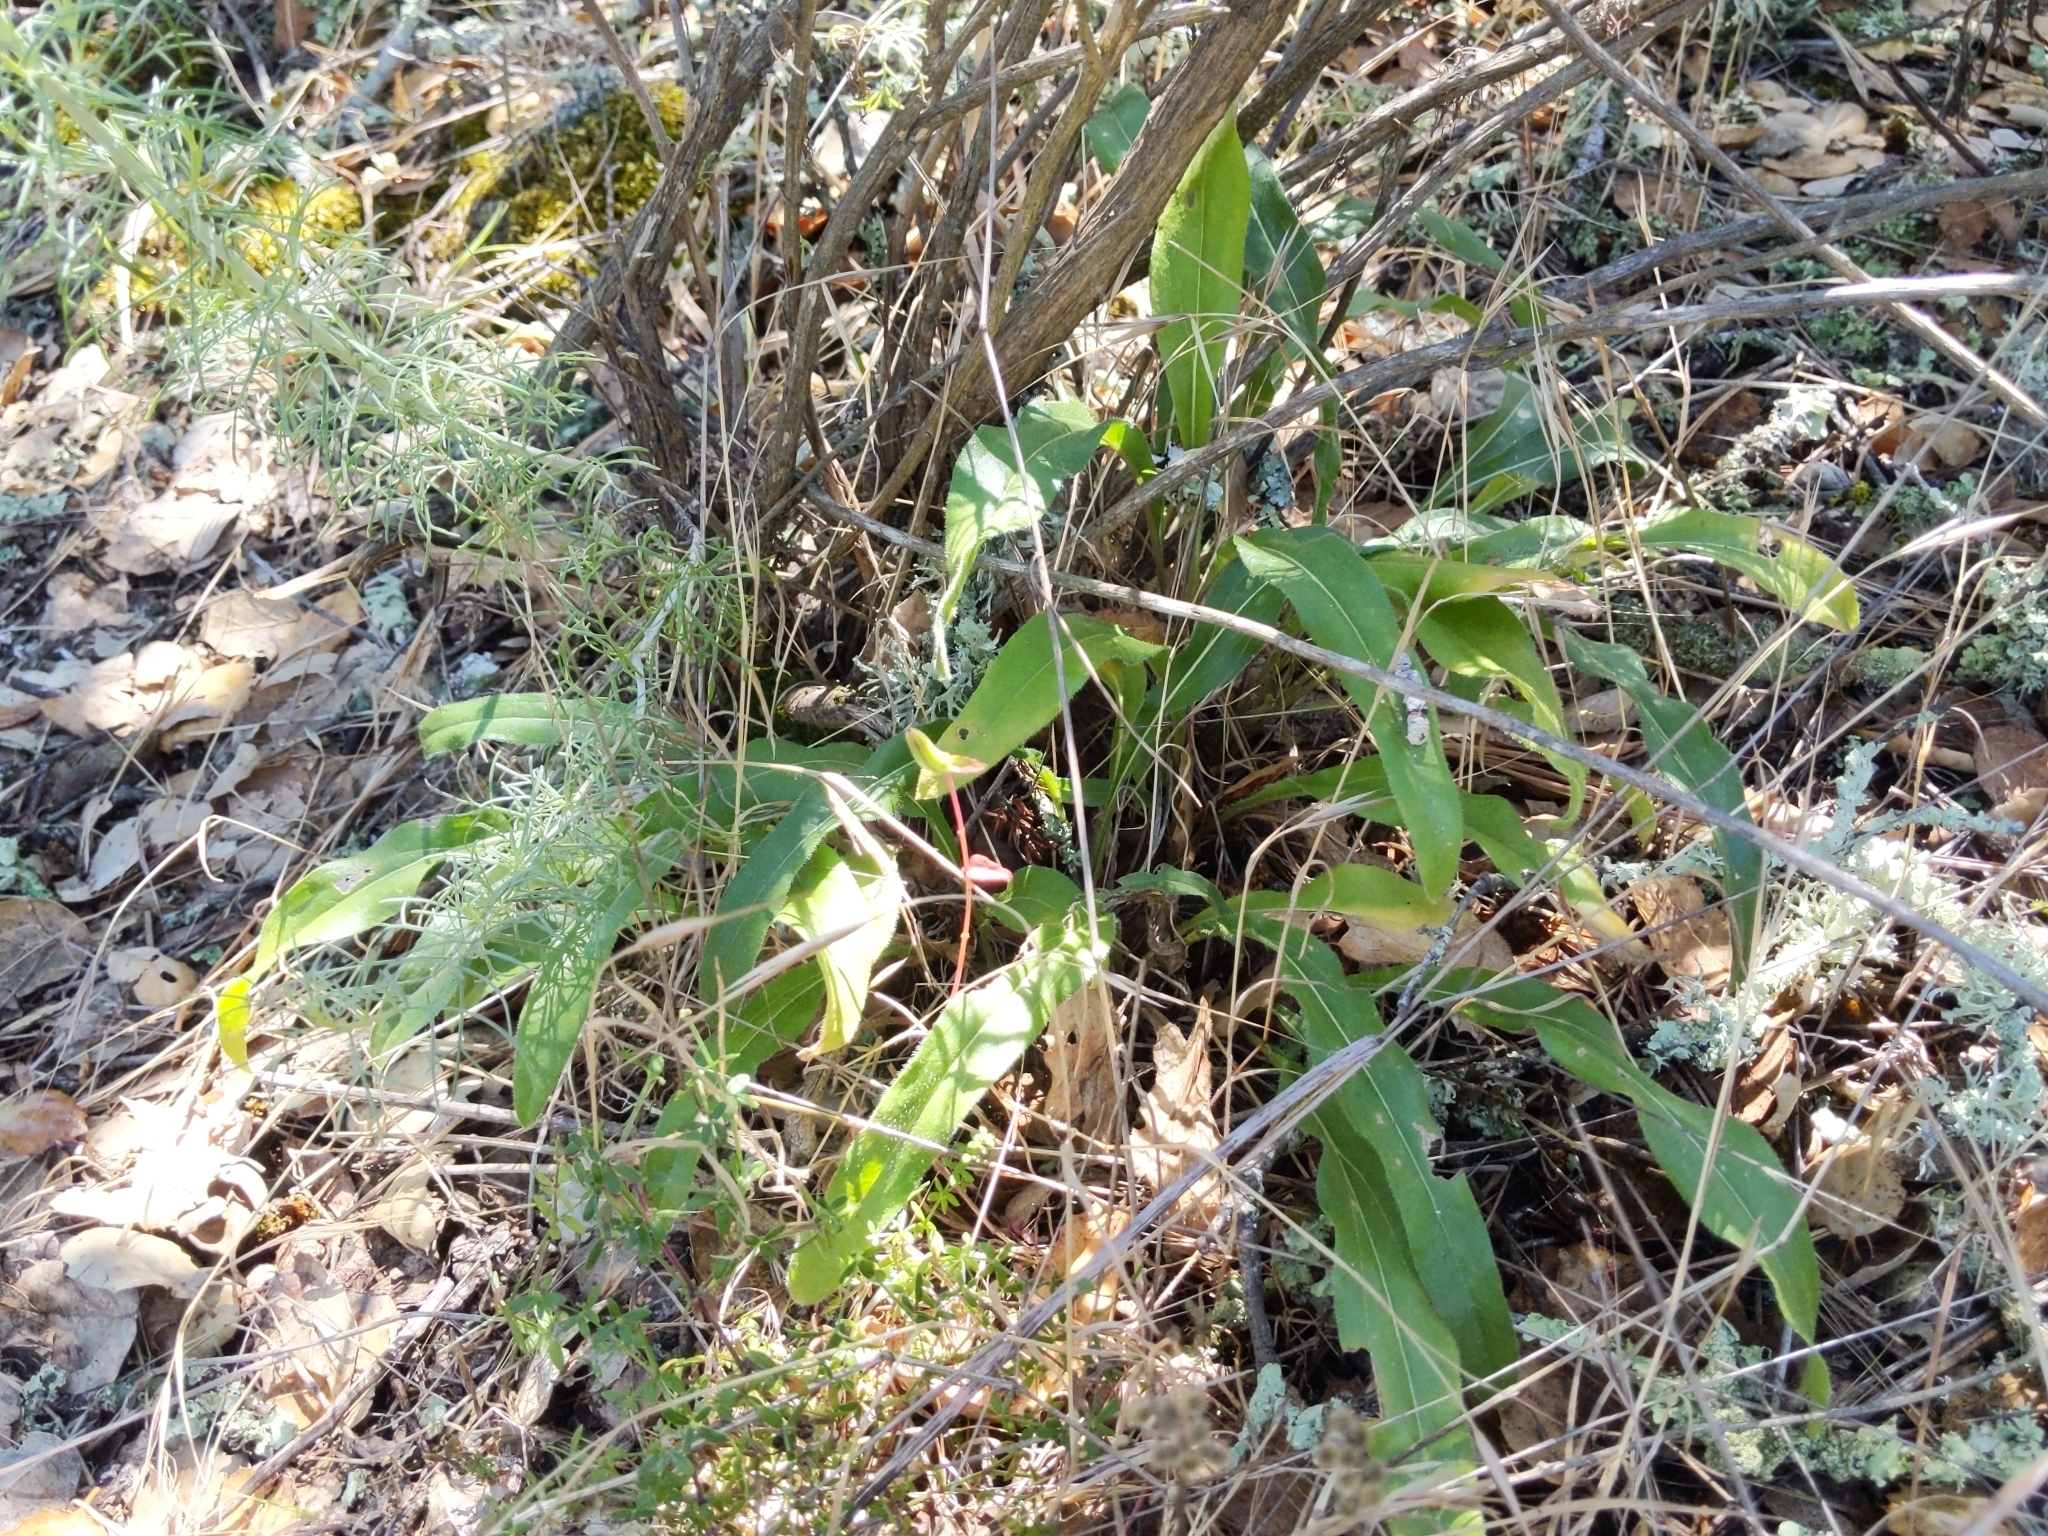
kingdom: Plantae
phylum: Tracheophyta
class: Magnoliopsida
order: Asterales
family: Asteraceae
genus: Helianthella
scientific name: Helianthella castanea
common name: Diablo helianthella
